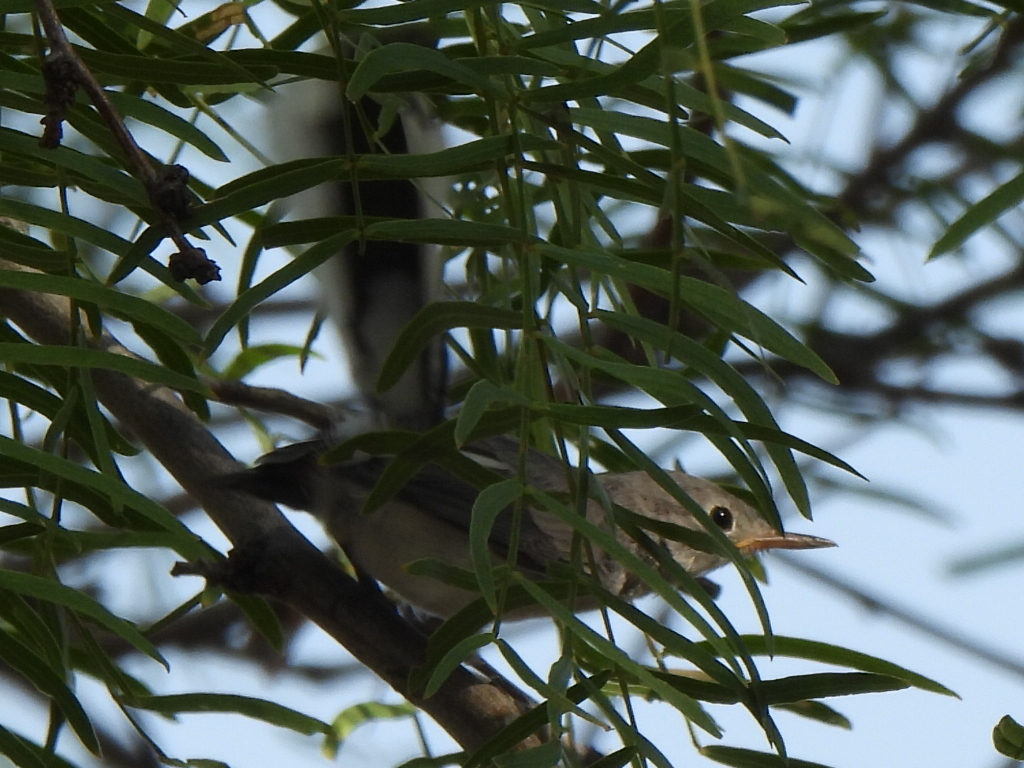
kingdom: Animalia
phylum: Chordata
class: Aves
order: Passeriformes
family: Polioptilidae
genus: Polioptila
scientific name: Polioptila caerulea
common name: Blue-gray gnatcatcher
